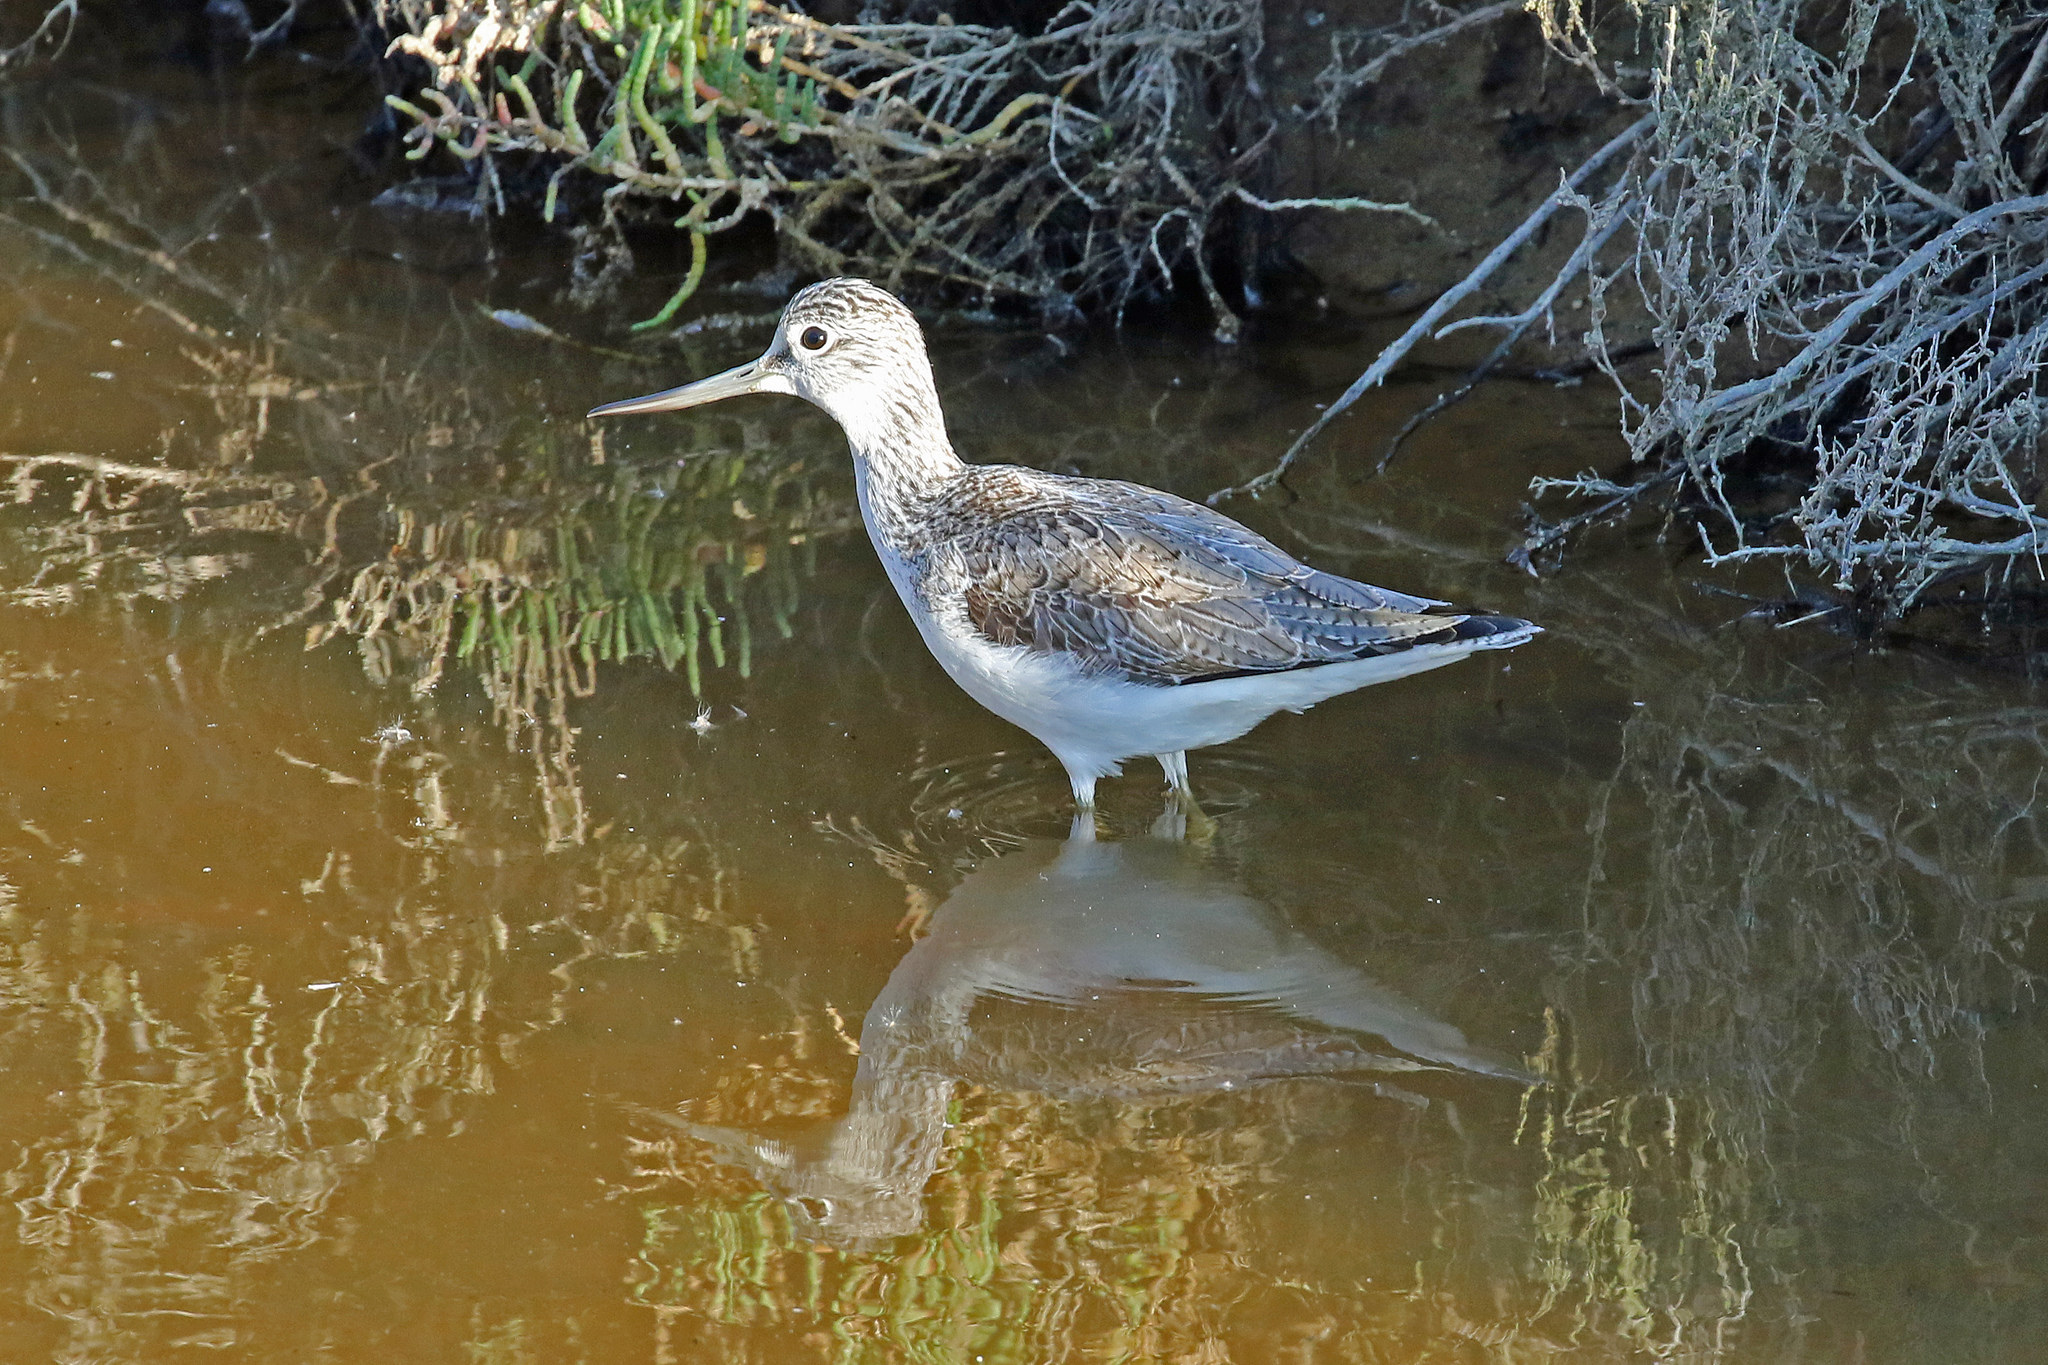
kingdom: Animalia
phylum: Chordata
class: Aves
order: Charadriiformes
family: Scolopacidae
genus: Tringa
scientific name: Tringa nebularia
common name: Common greenshank
